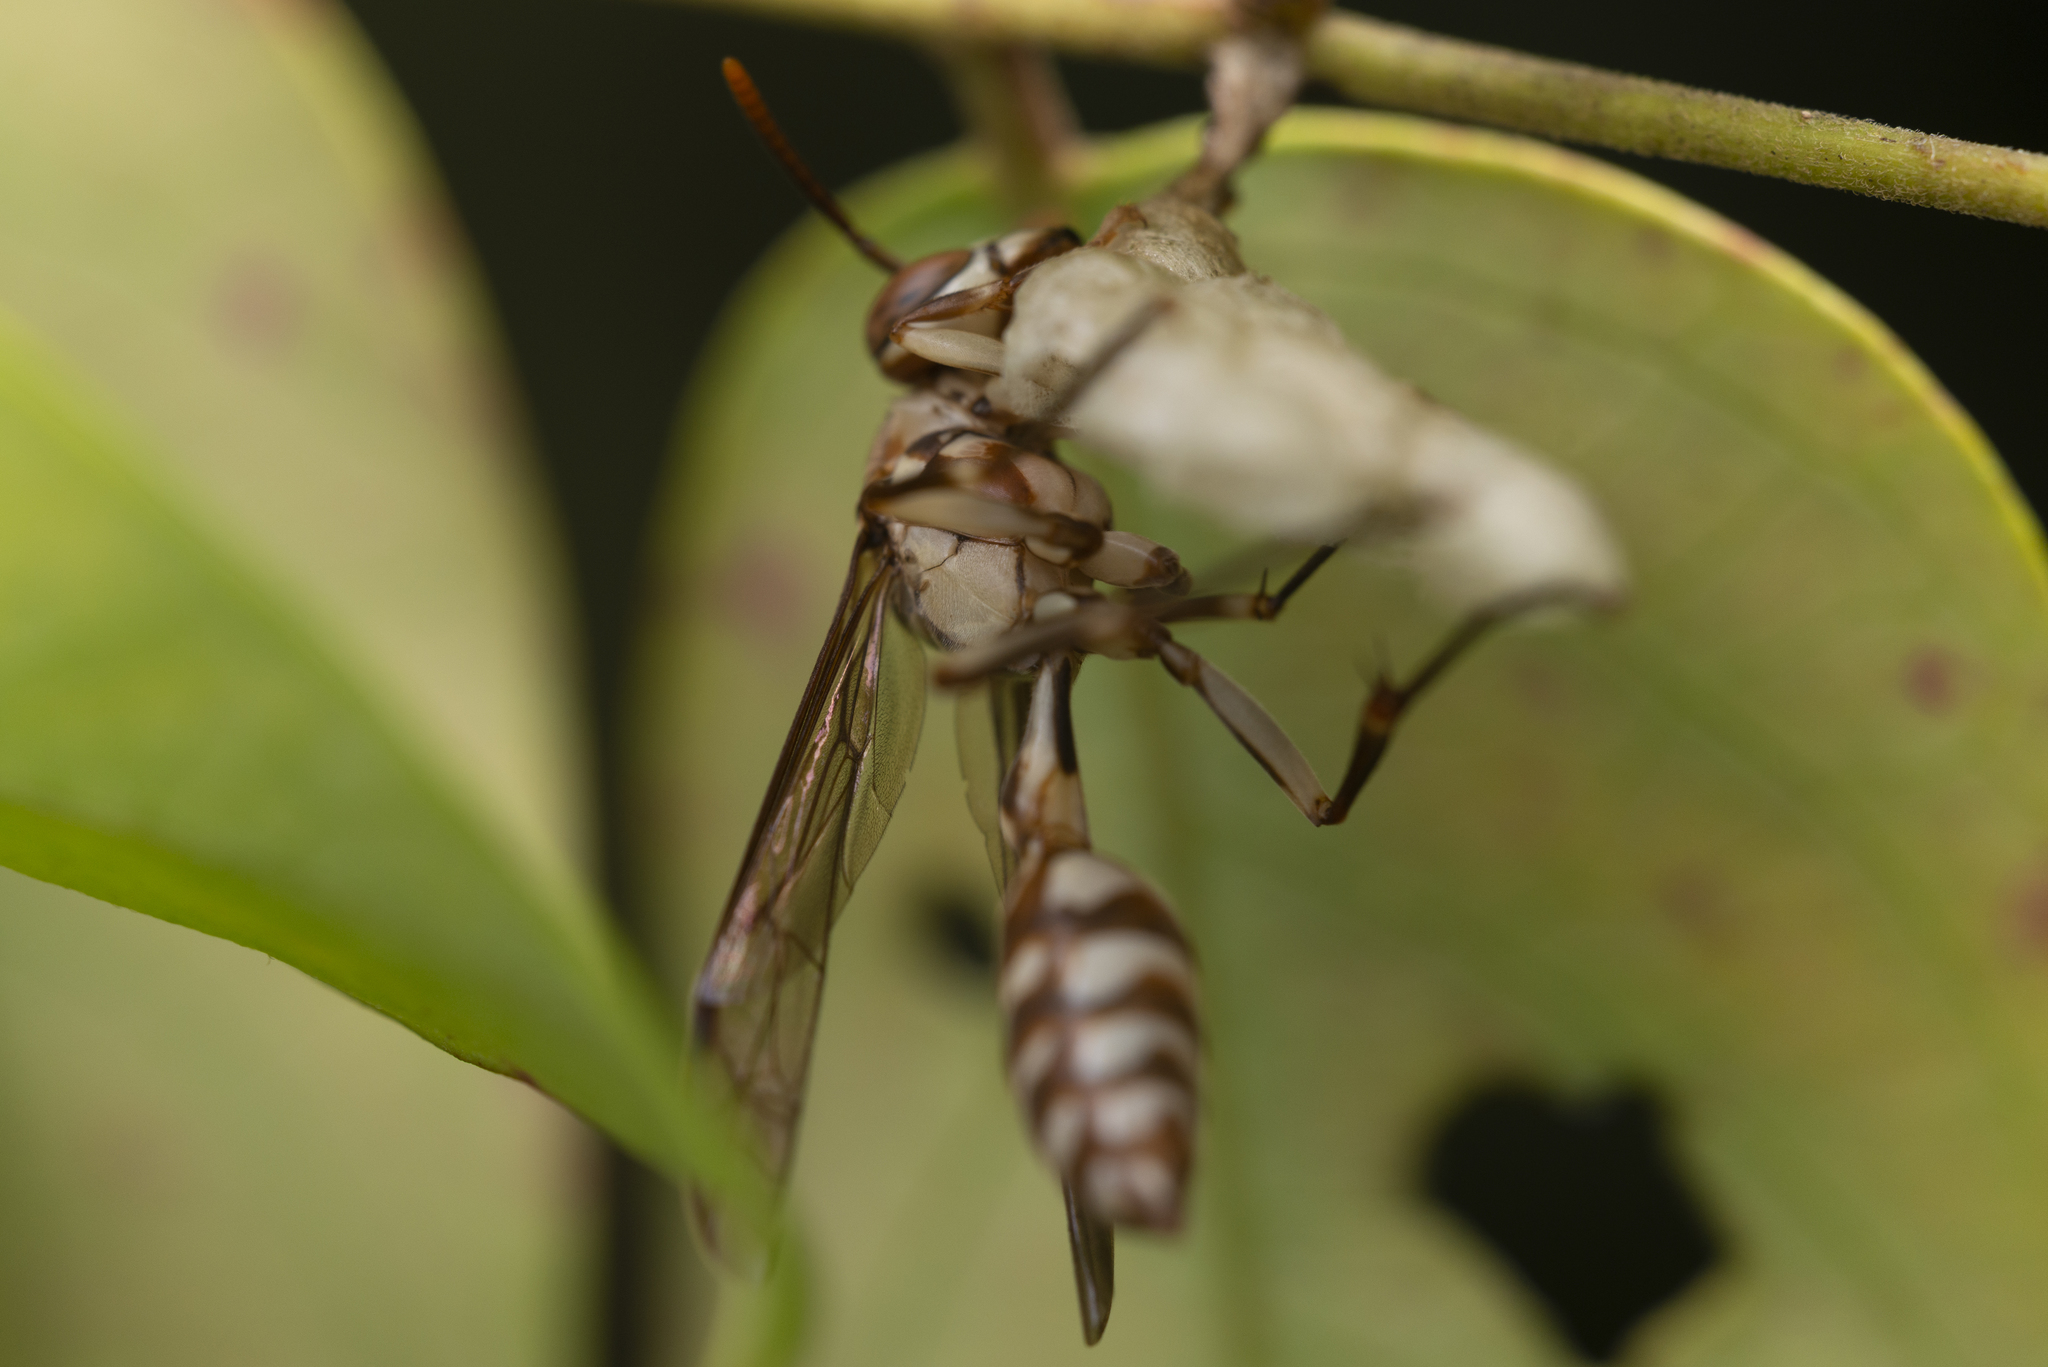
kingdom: Animalia
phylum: Arthropoda
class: Insecta
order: Hymenoptera
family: Vespidae
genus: Parapolybia
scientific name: Parapolybia nodosa
